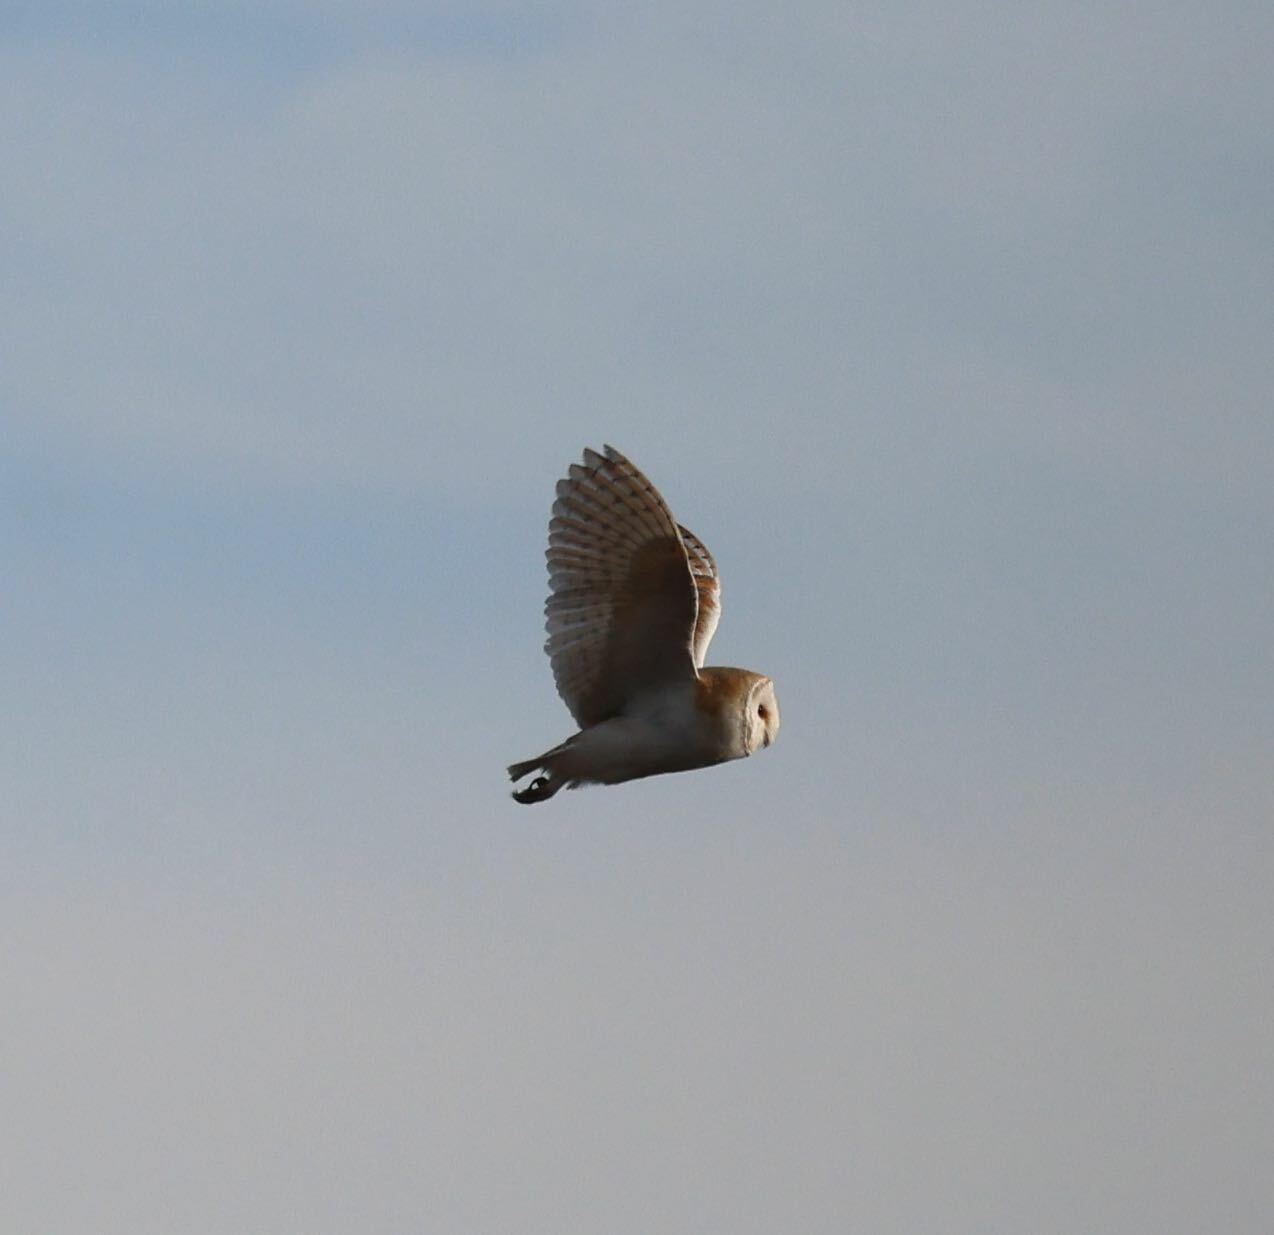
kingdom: Animalia
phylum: Chordata
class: Aves
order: Strigiformes
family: Tytonidae
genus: Tyto
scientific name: Tyto alba
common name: Barn owl
